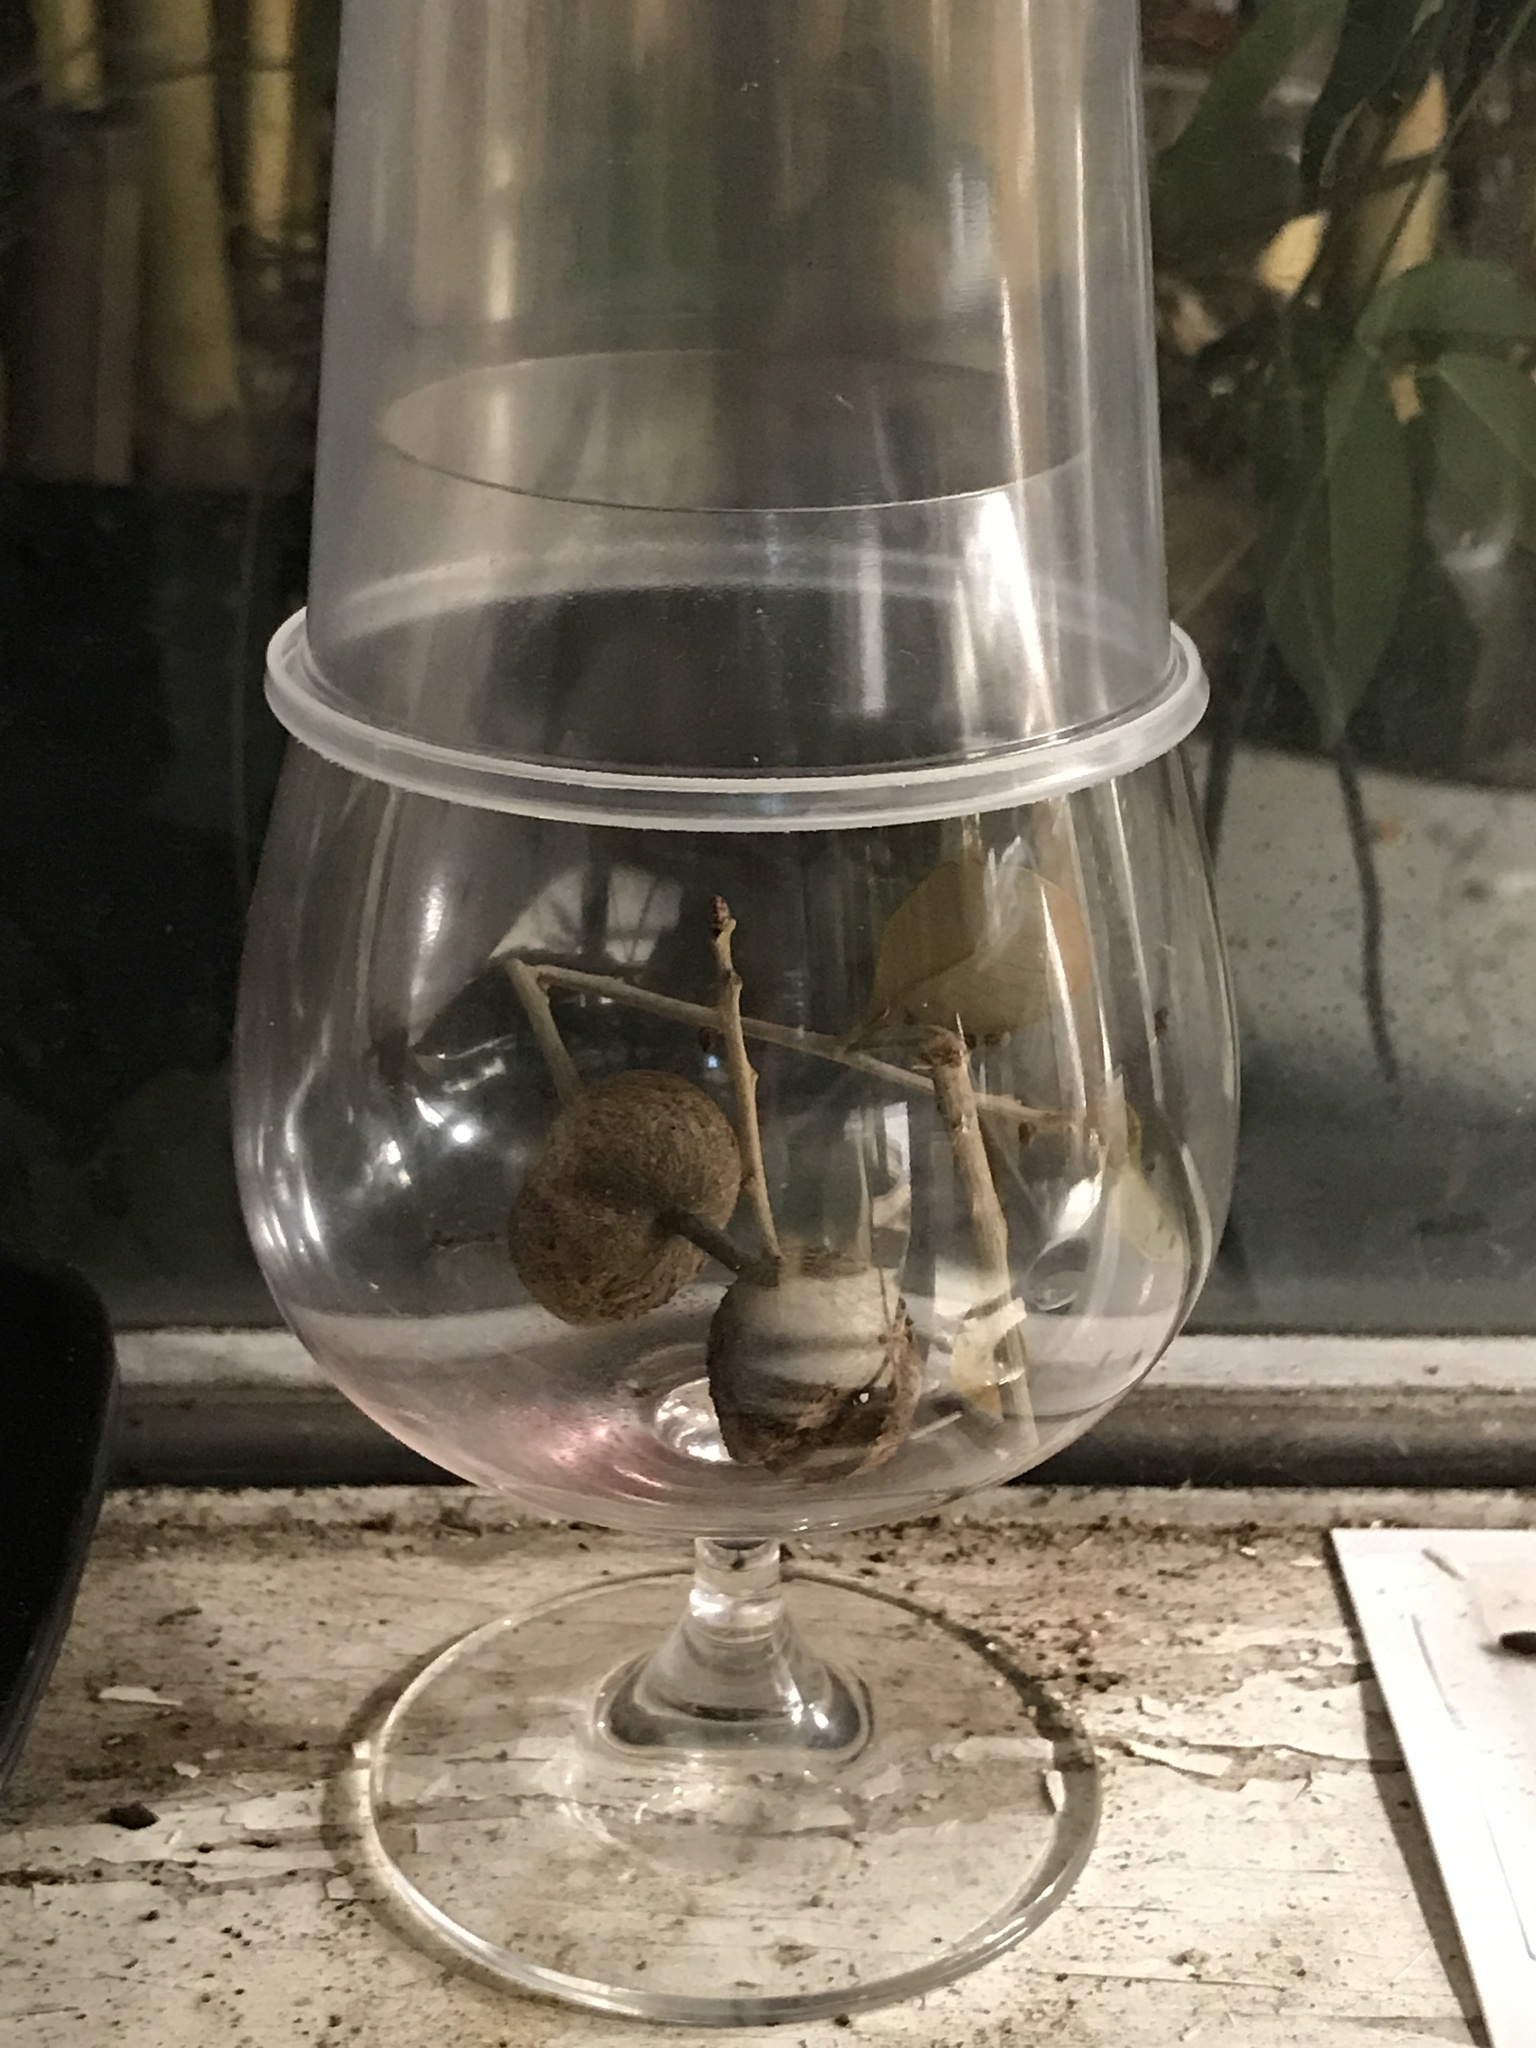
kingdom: Animalia
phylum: Arthropoda
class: Insecta
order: Hymenoptera
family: Cynipidae
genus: Callirhytis
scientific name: Callirhytis
